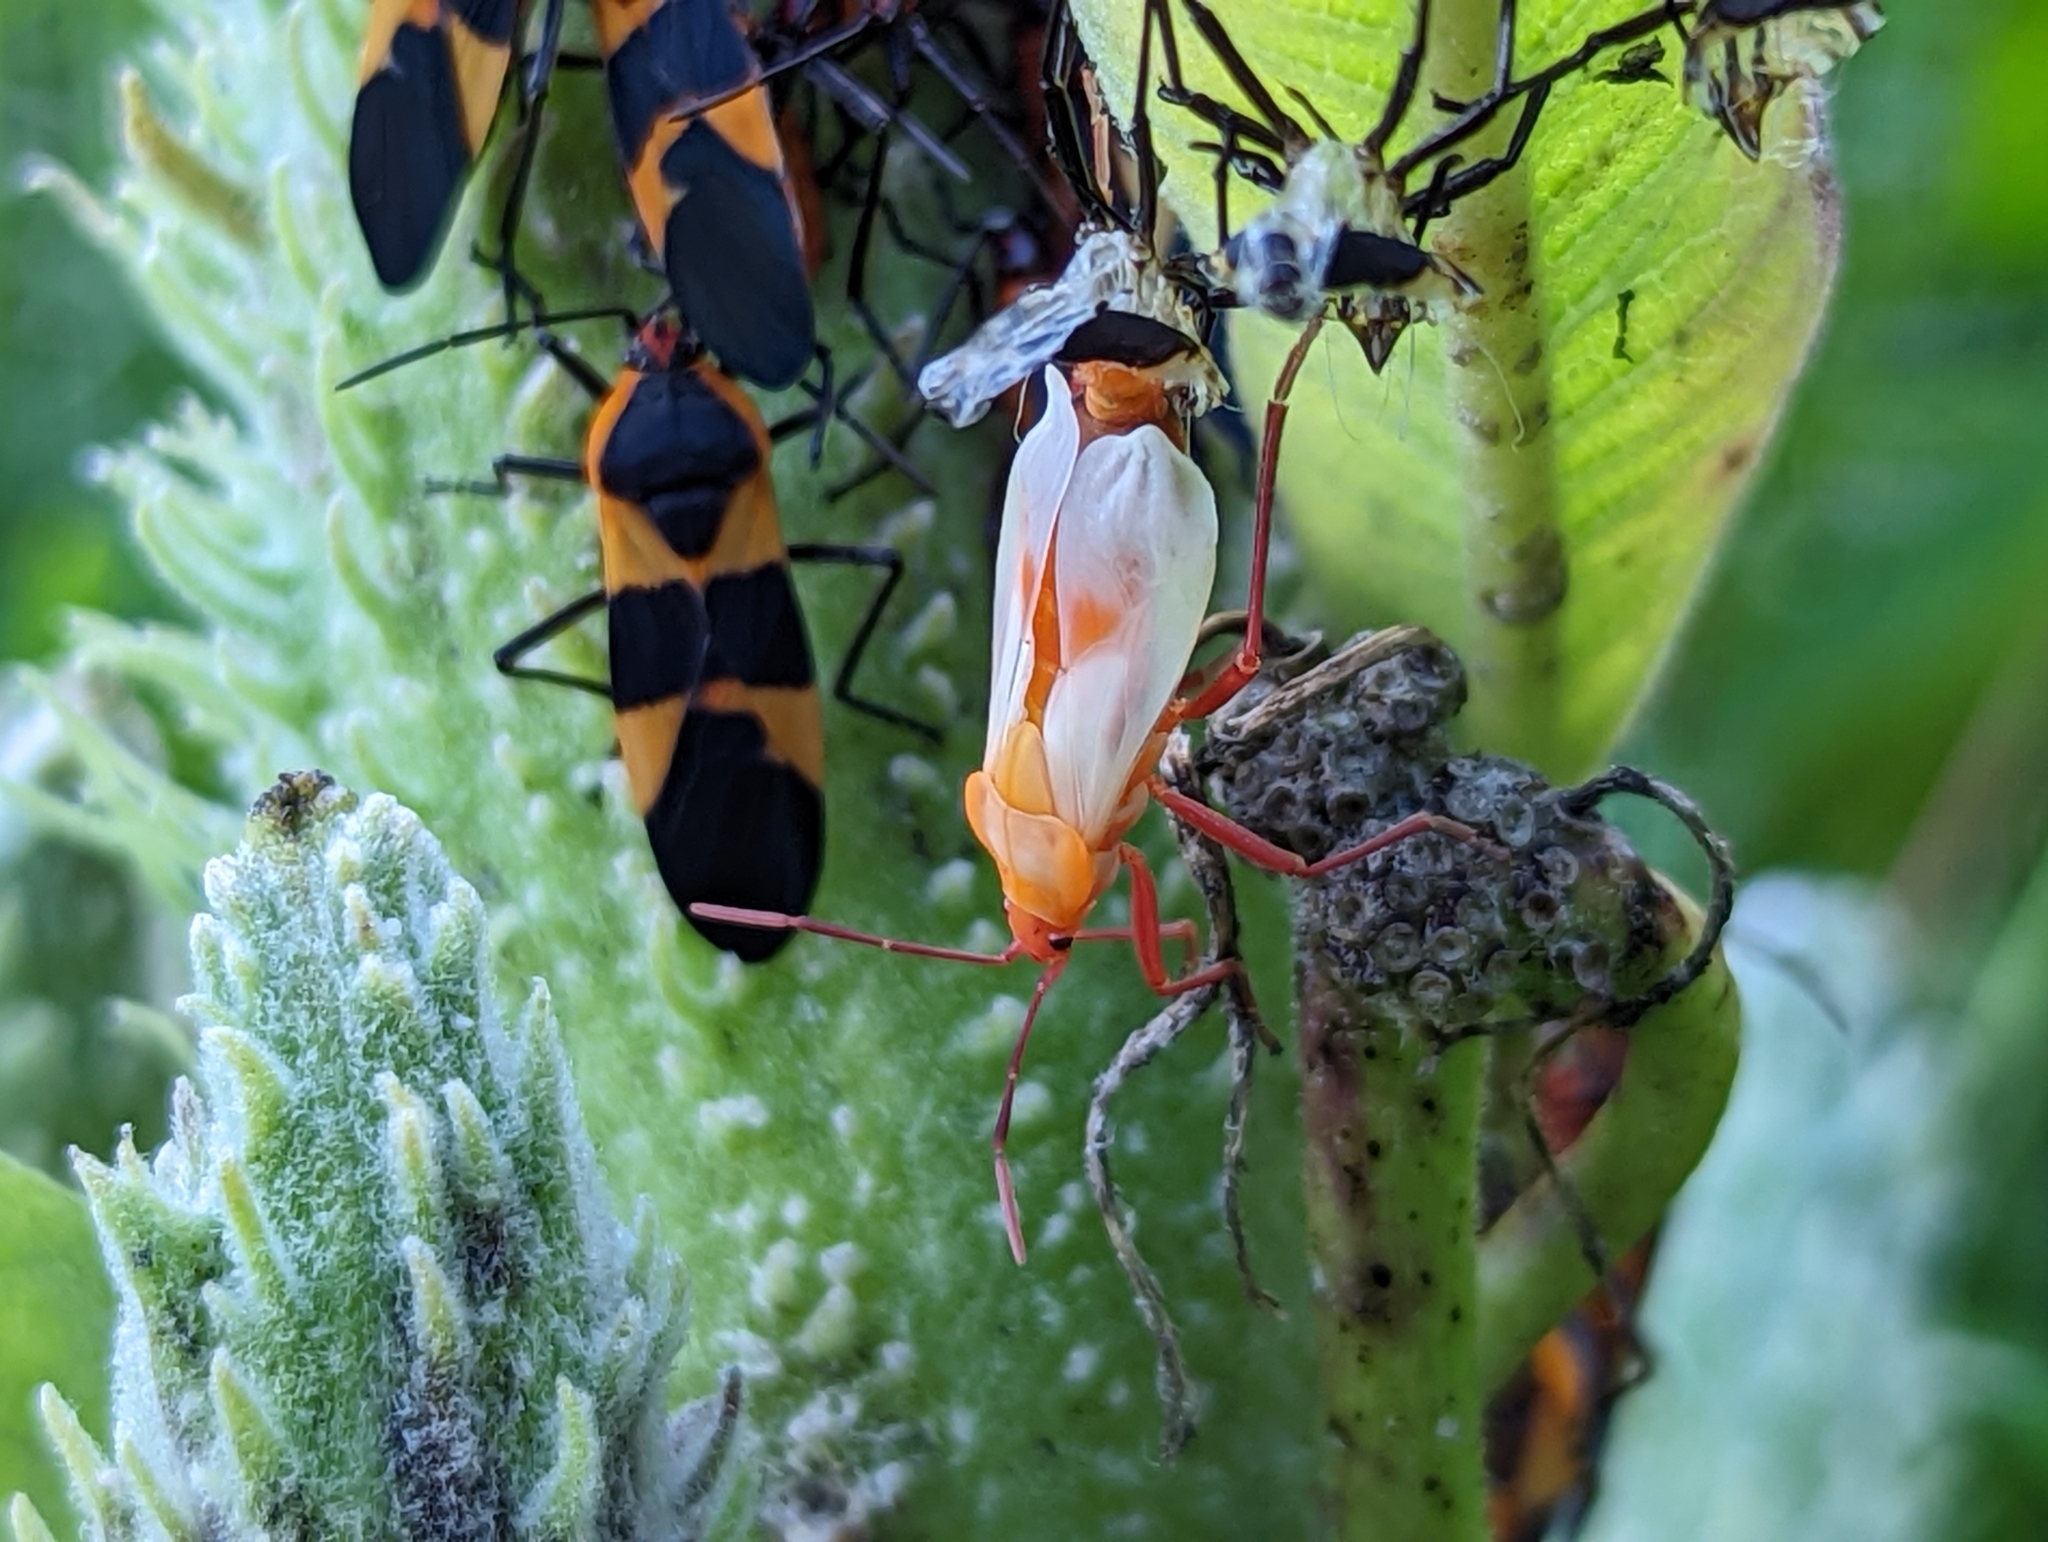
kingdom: Animalia
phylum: Arthropoda
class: Insecta
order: Hemiptera
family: Lygaeidae
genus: Oncopeltus
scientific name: Oncopeltus fasciatus
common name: Large milkweed bug
